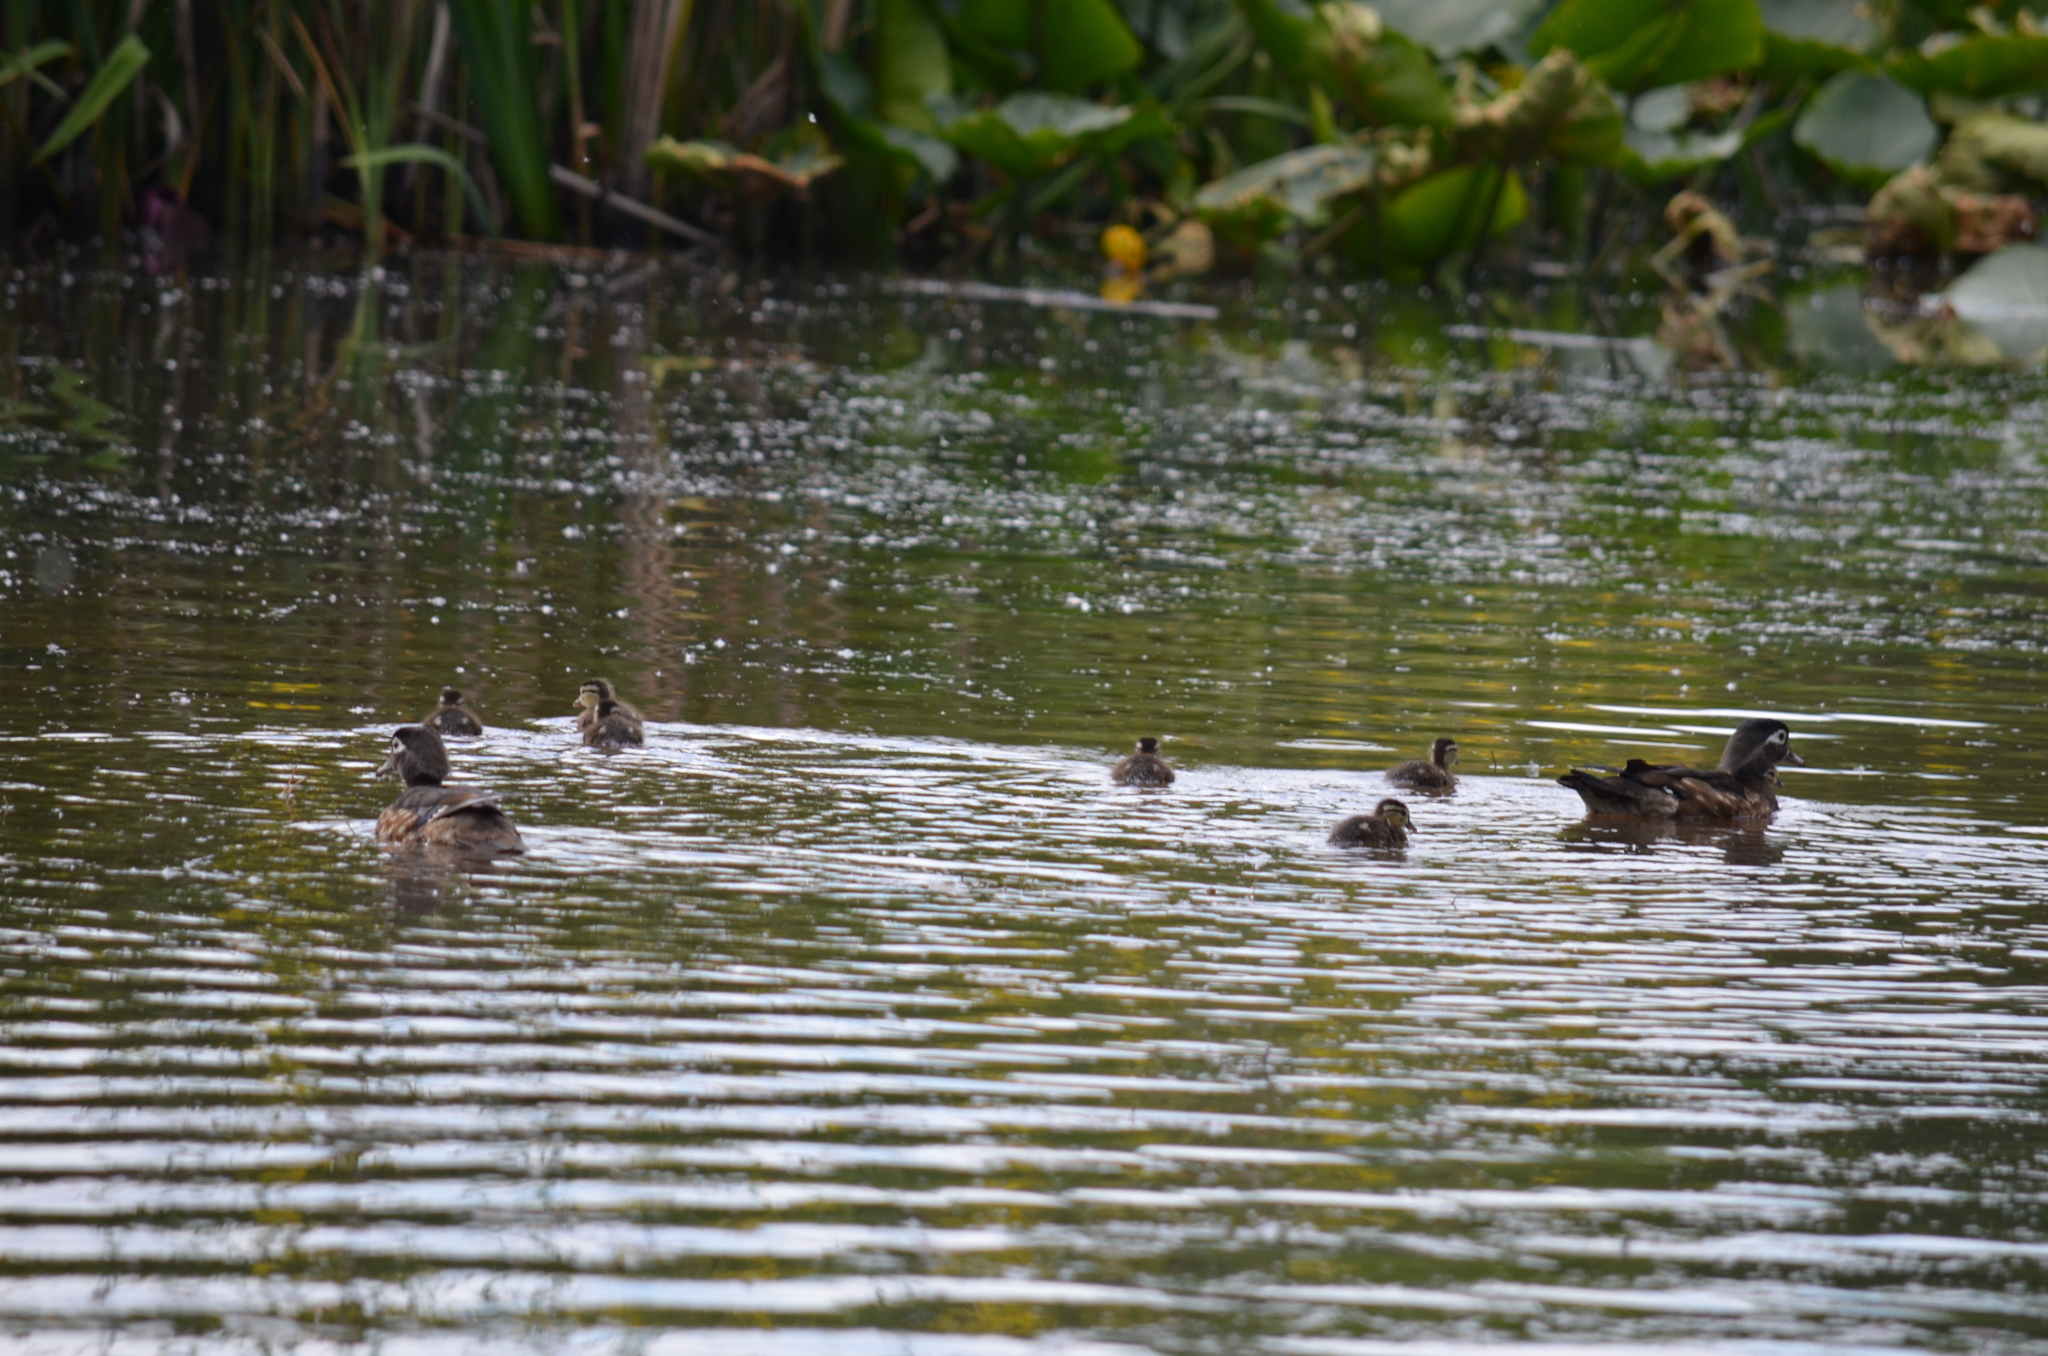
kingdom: Animalia
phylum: Chordata
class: Aves
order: Anseriformes
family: Anatidae
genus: Aix
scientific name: Aix sponsa
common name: Wood duck
